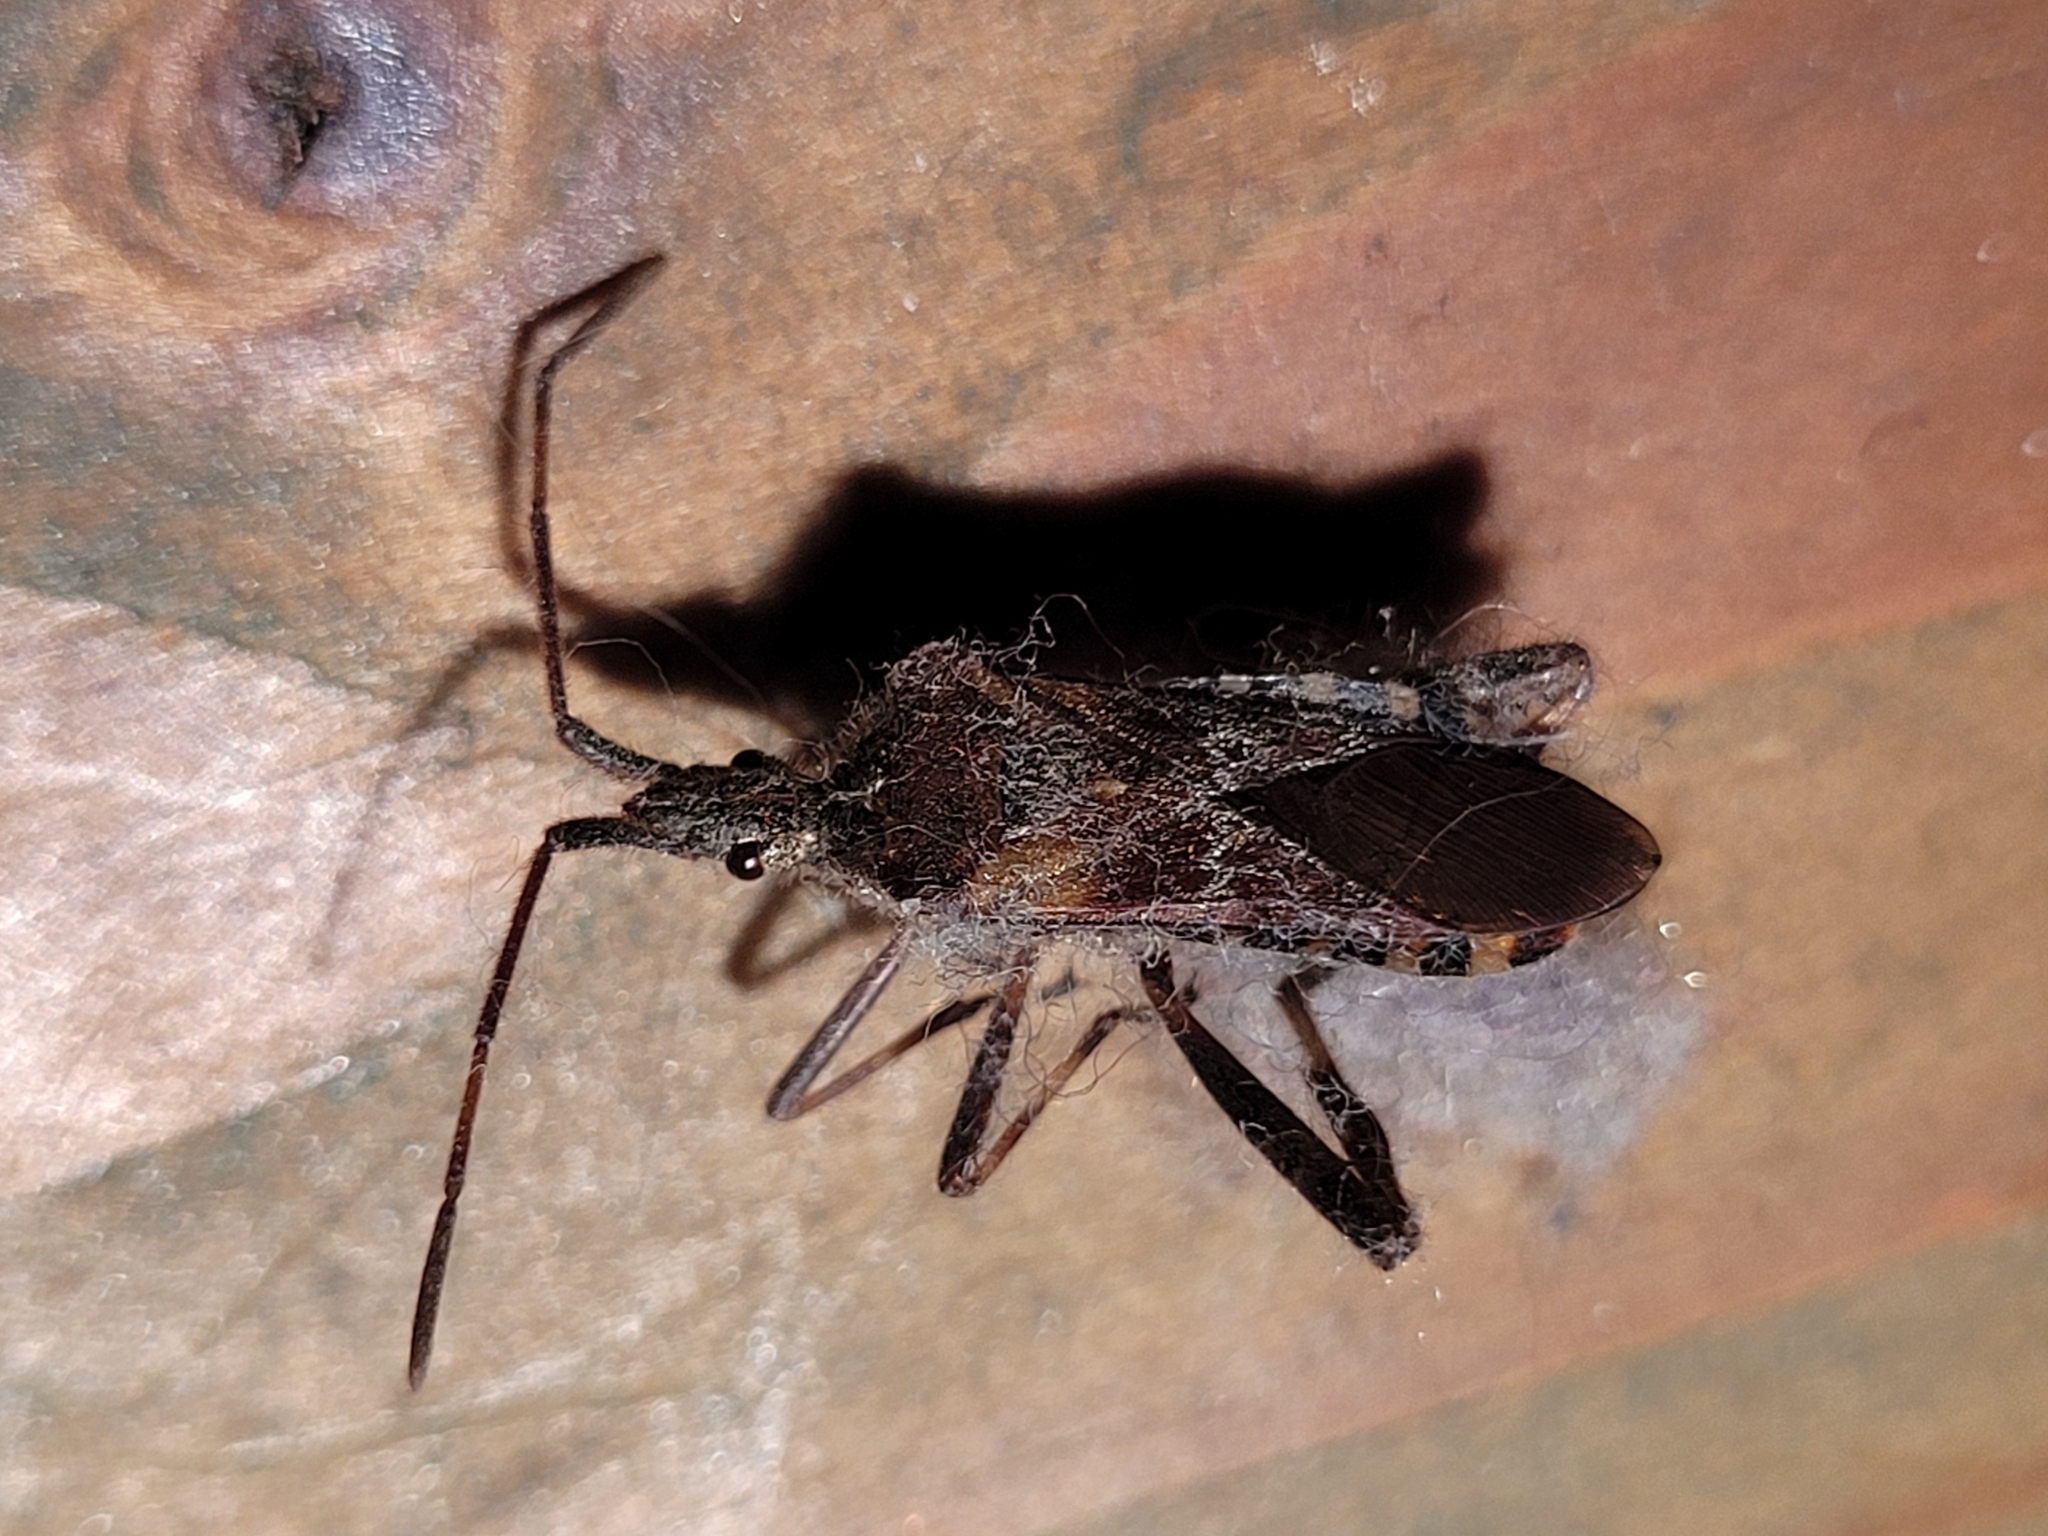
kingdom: Animalia
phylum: Arthropoda
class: Insecta
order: Hemiptera
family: Coreidae
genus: Leptoglossus
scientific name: Leptoglossus occidentalis
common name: Western conifer-seed bug
